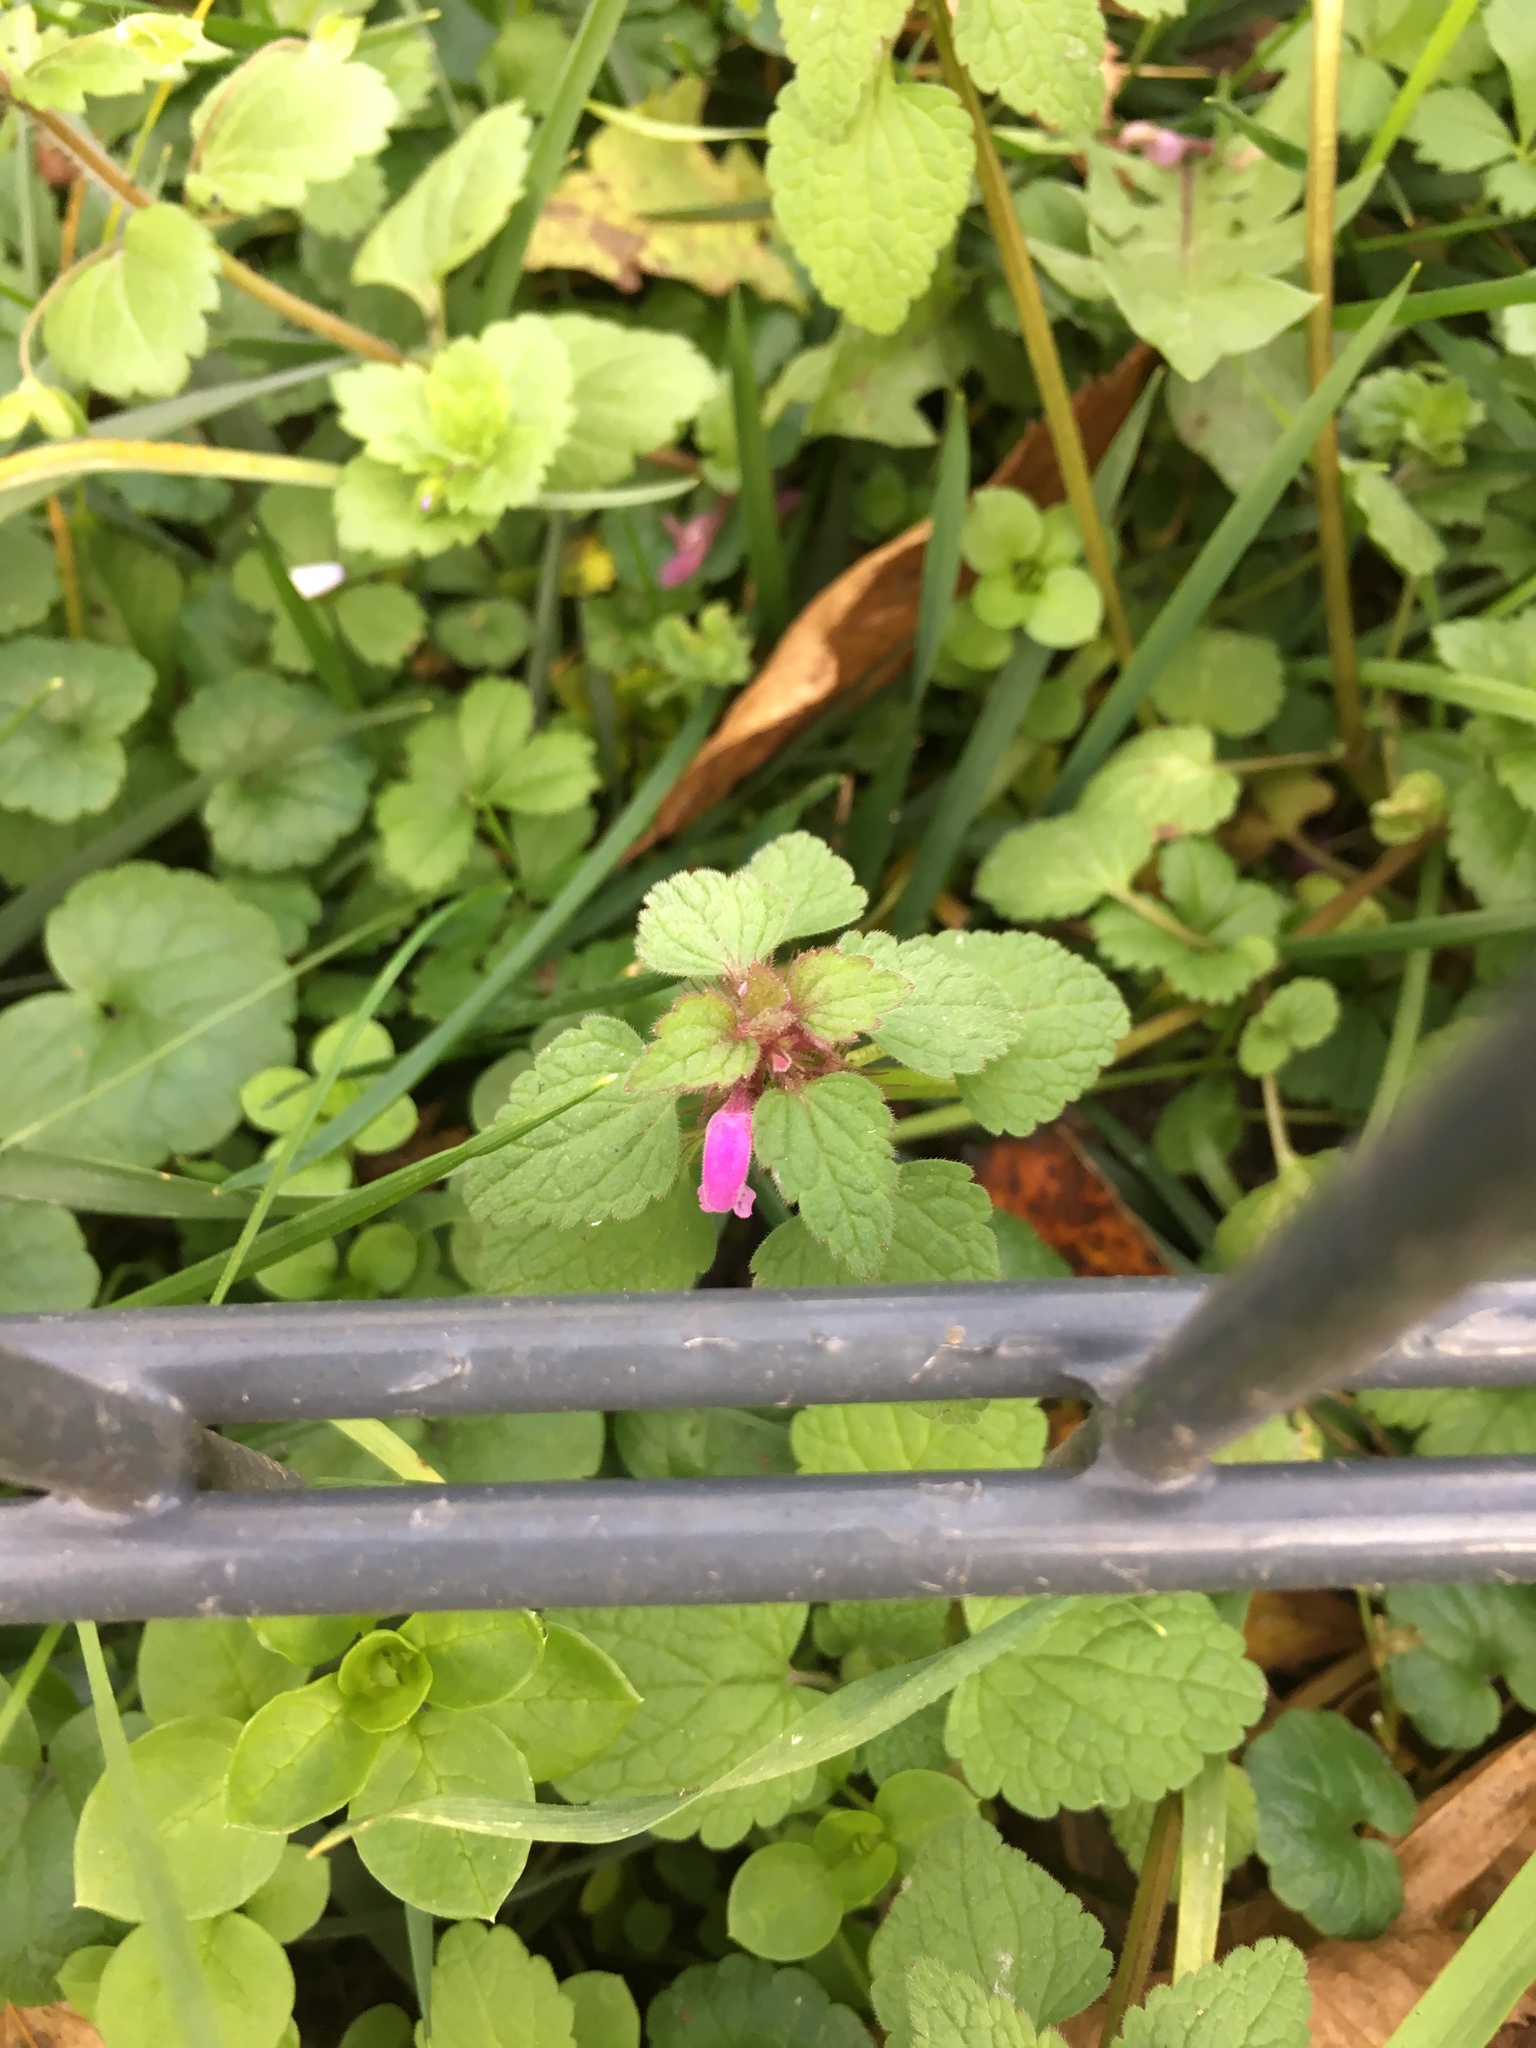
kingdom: Plantae
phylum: Tracheophyta
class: Magnoliopsida
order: Lamiales
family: Lamiaceae
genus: Lamium
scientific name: Lamium purpureum
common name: Red dead-nettle
